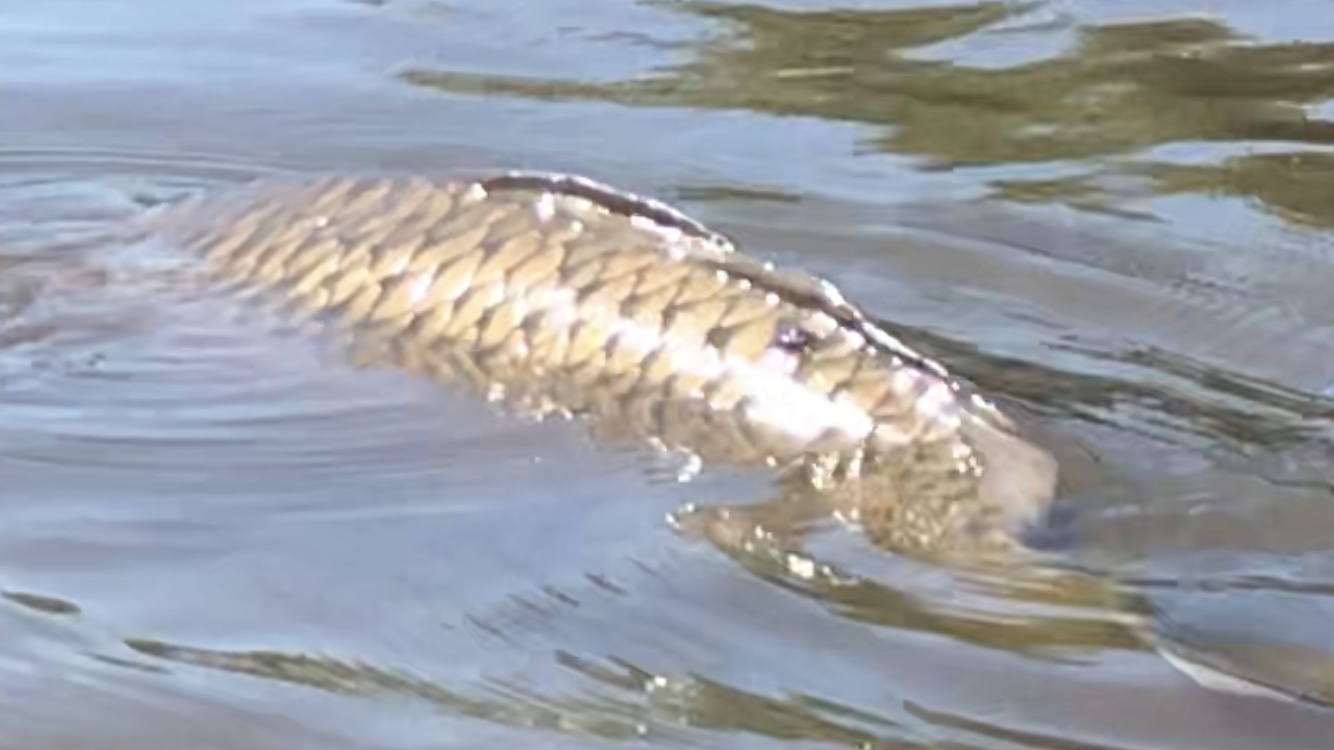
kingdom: Animalia
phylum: Chordata
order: Cypriniformes
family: Cyprinidae
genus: Cyprinus
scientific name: Cyprinus carpio
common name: Common carp
